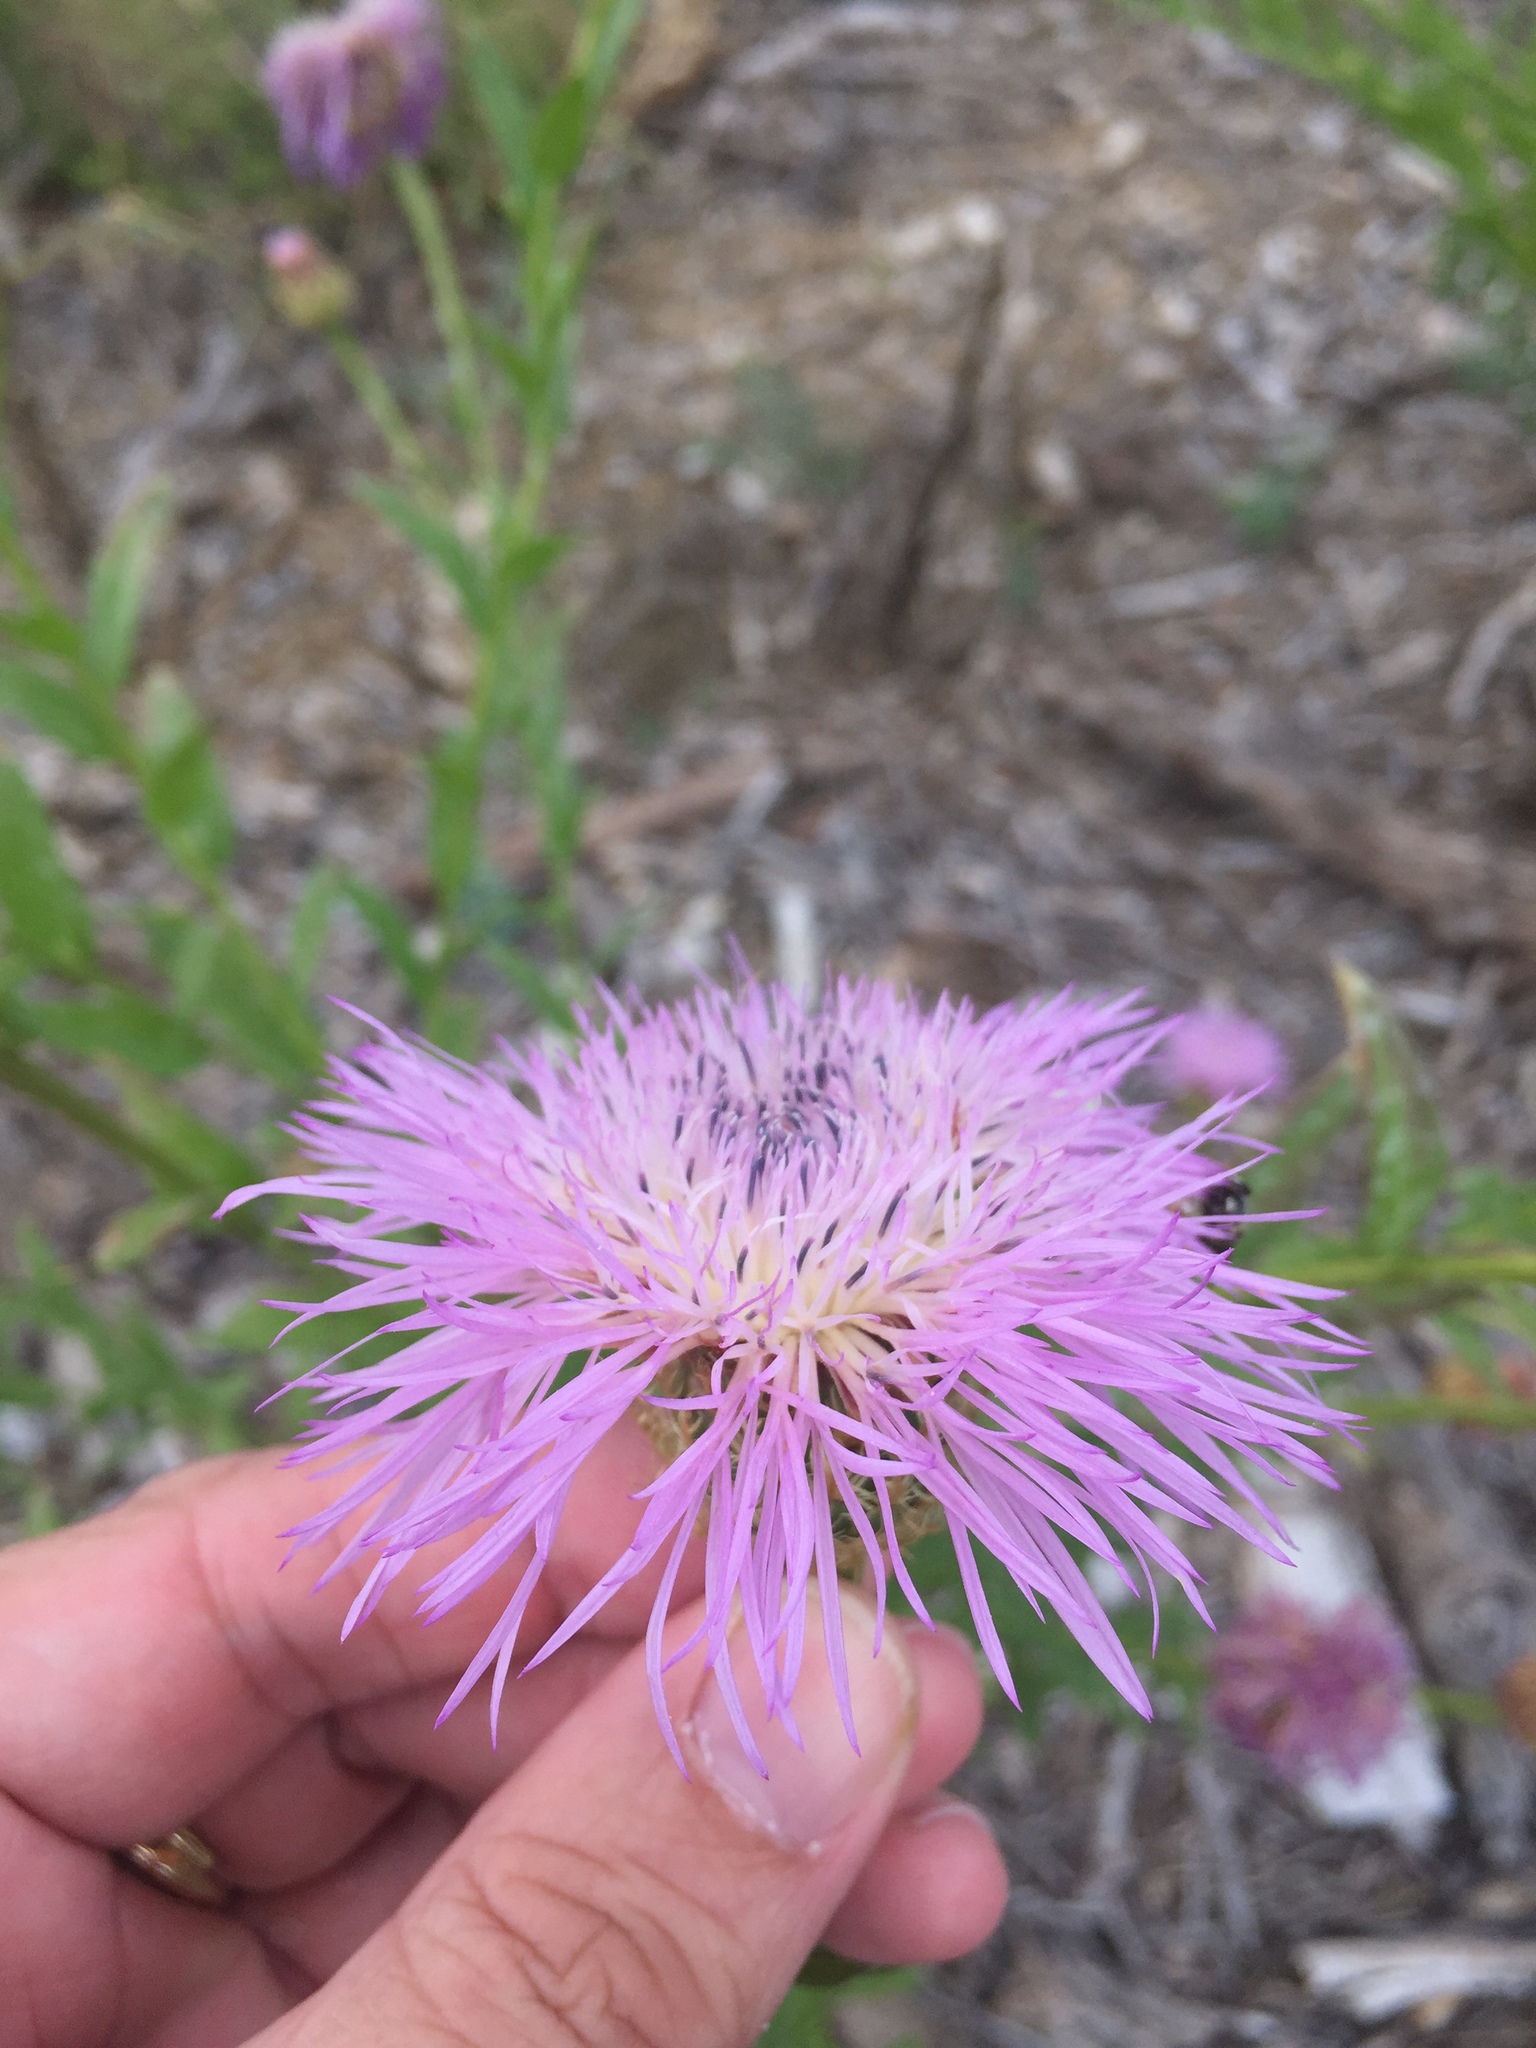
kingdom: Plantae
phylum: Tracheophyta
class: Magnoliopsida
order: Asterales
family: Asteraceae
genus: Plectocephalus
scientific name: Plectocephalus americanus
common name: American basket-flower
